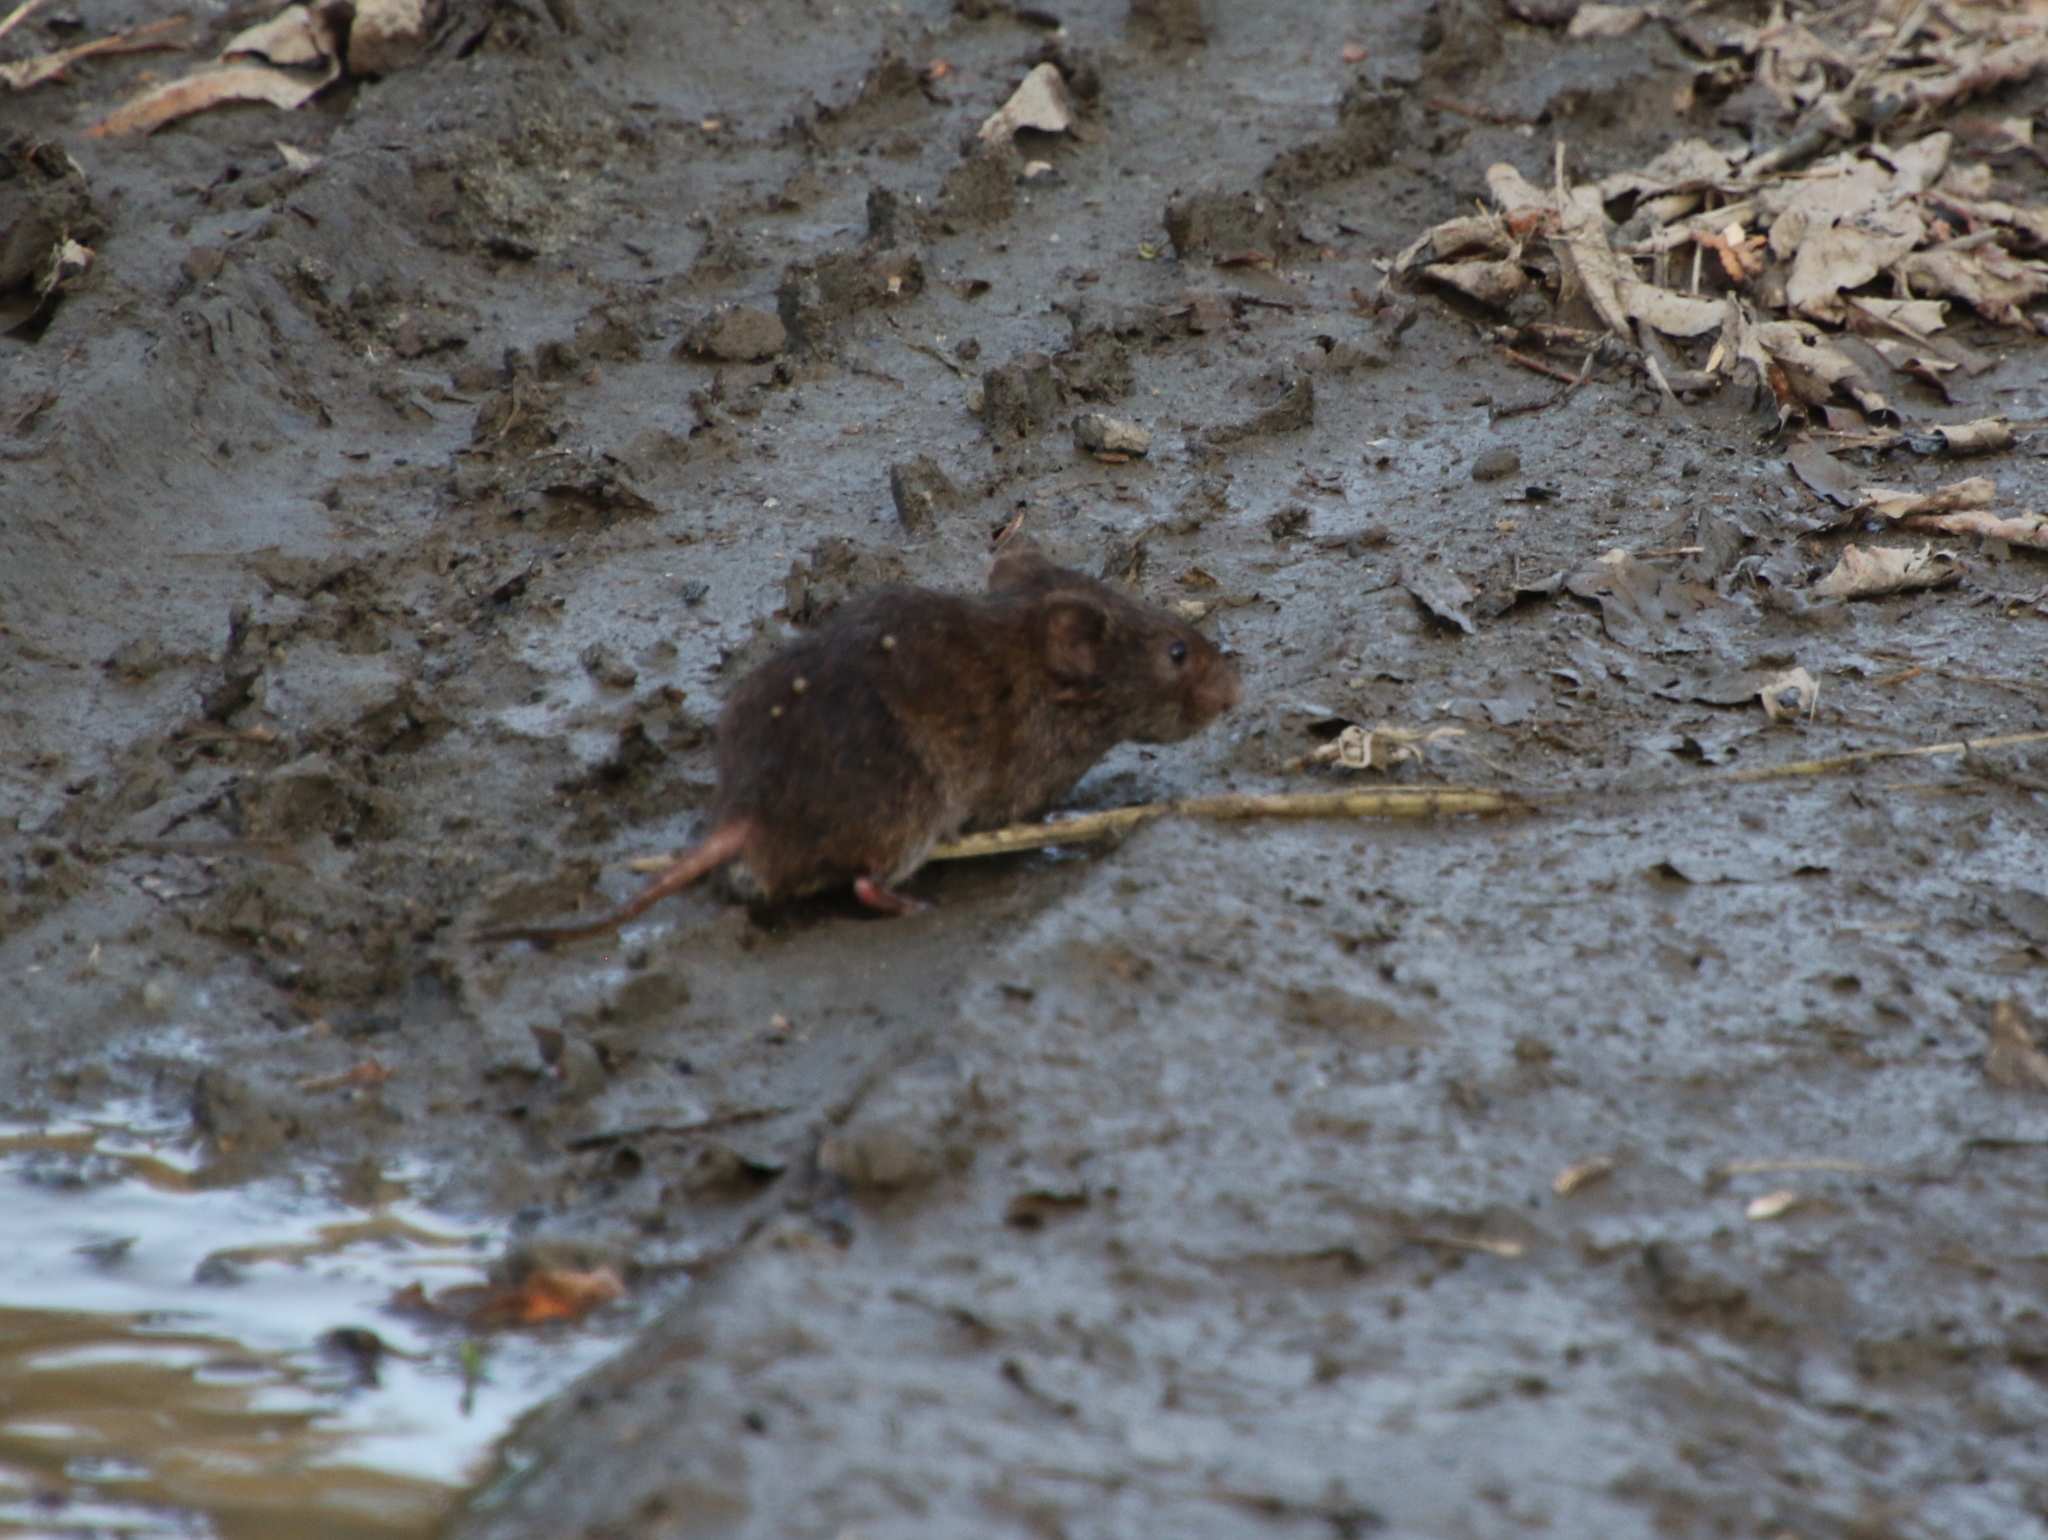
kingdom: Animalia
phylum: Chordata
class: Mammalia
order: Rodentia
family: Muridae
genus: Rattus
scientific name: Rattus norvegicus
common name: Brown rat
